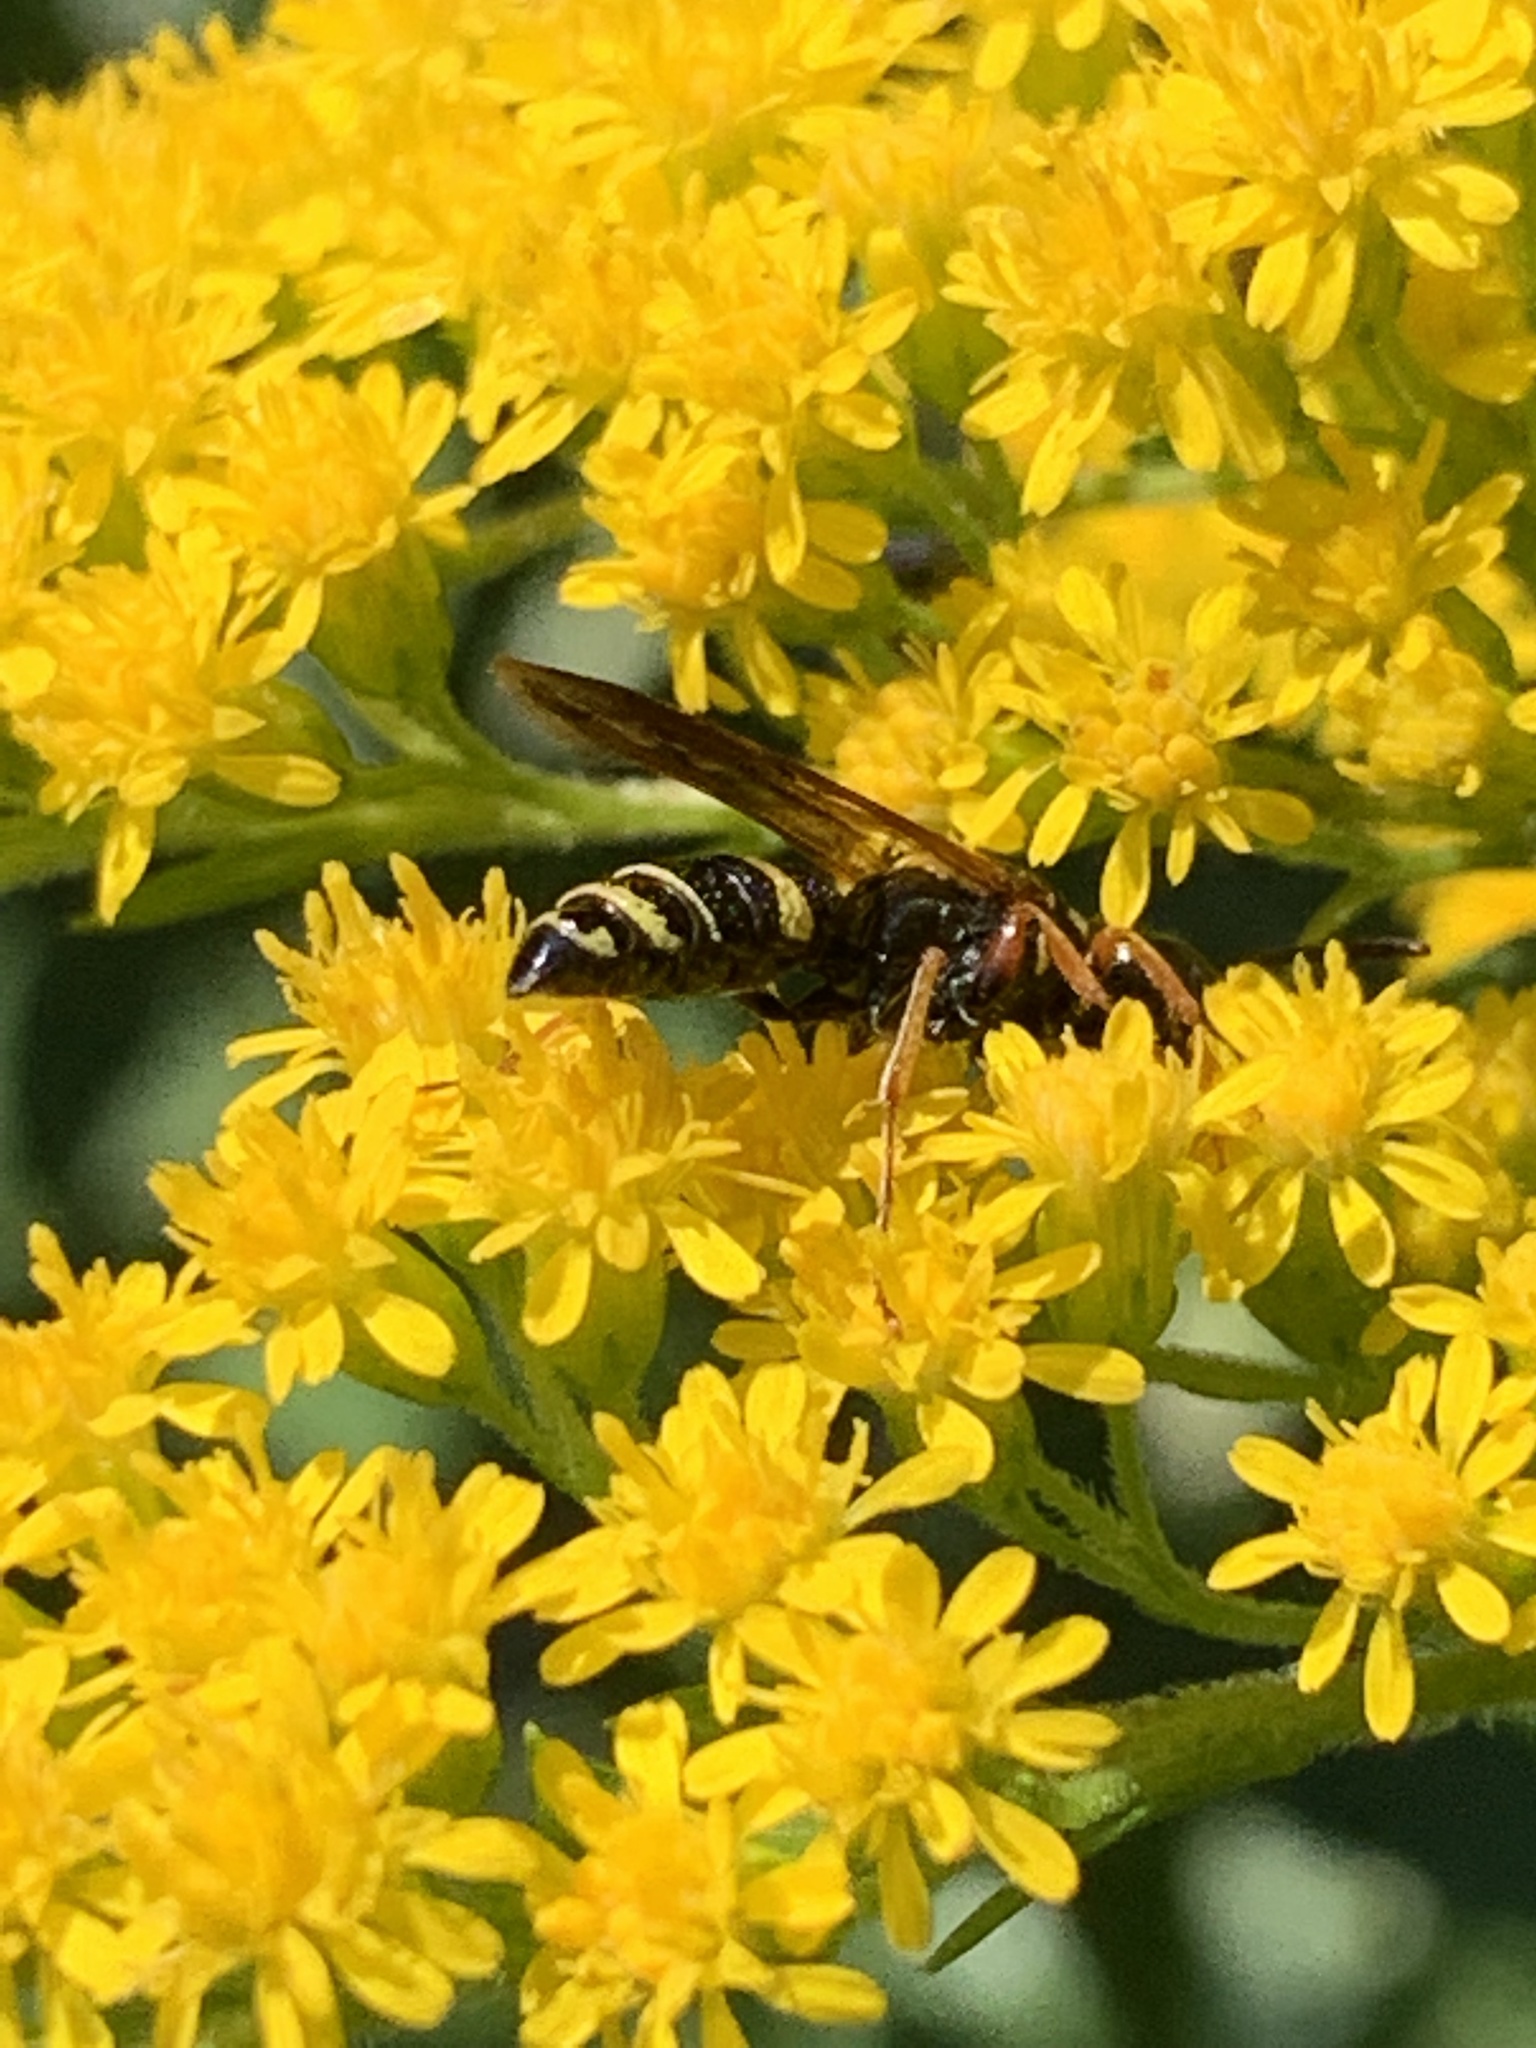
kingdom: Animalia
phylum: Arthropoda
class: Insecta
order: Hymenoptera
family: Crabronidae
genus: Philanthus
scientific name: Philanthus gibbosus
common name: Humped beewolf
